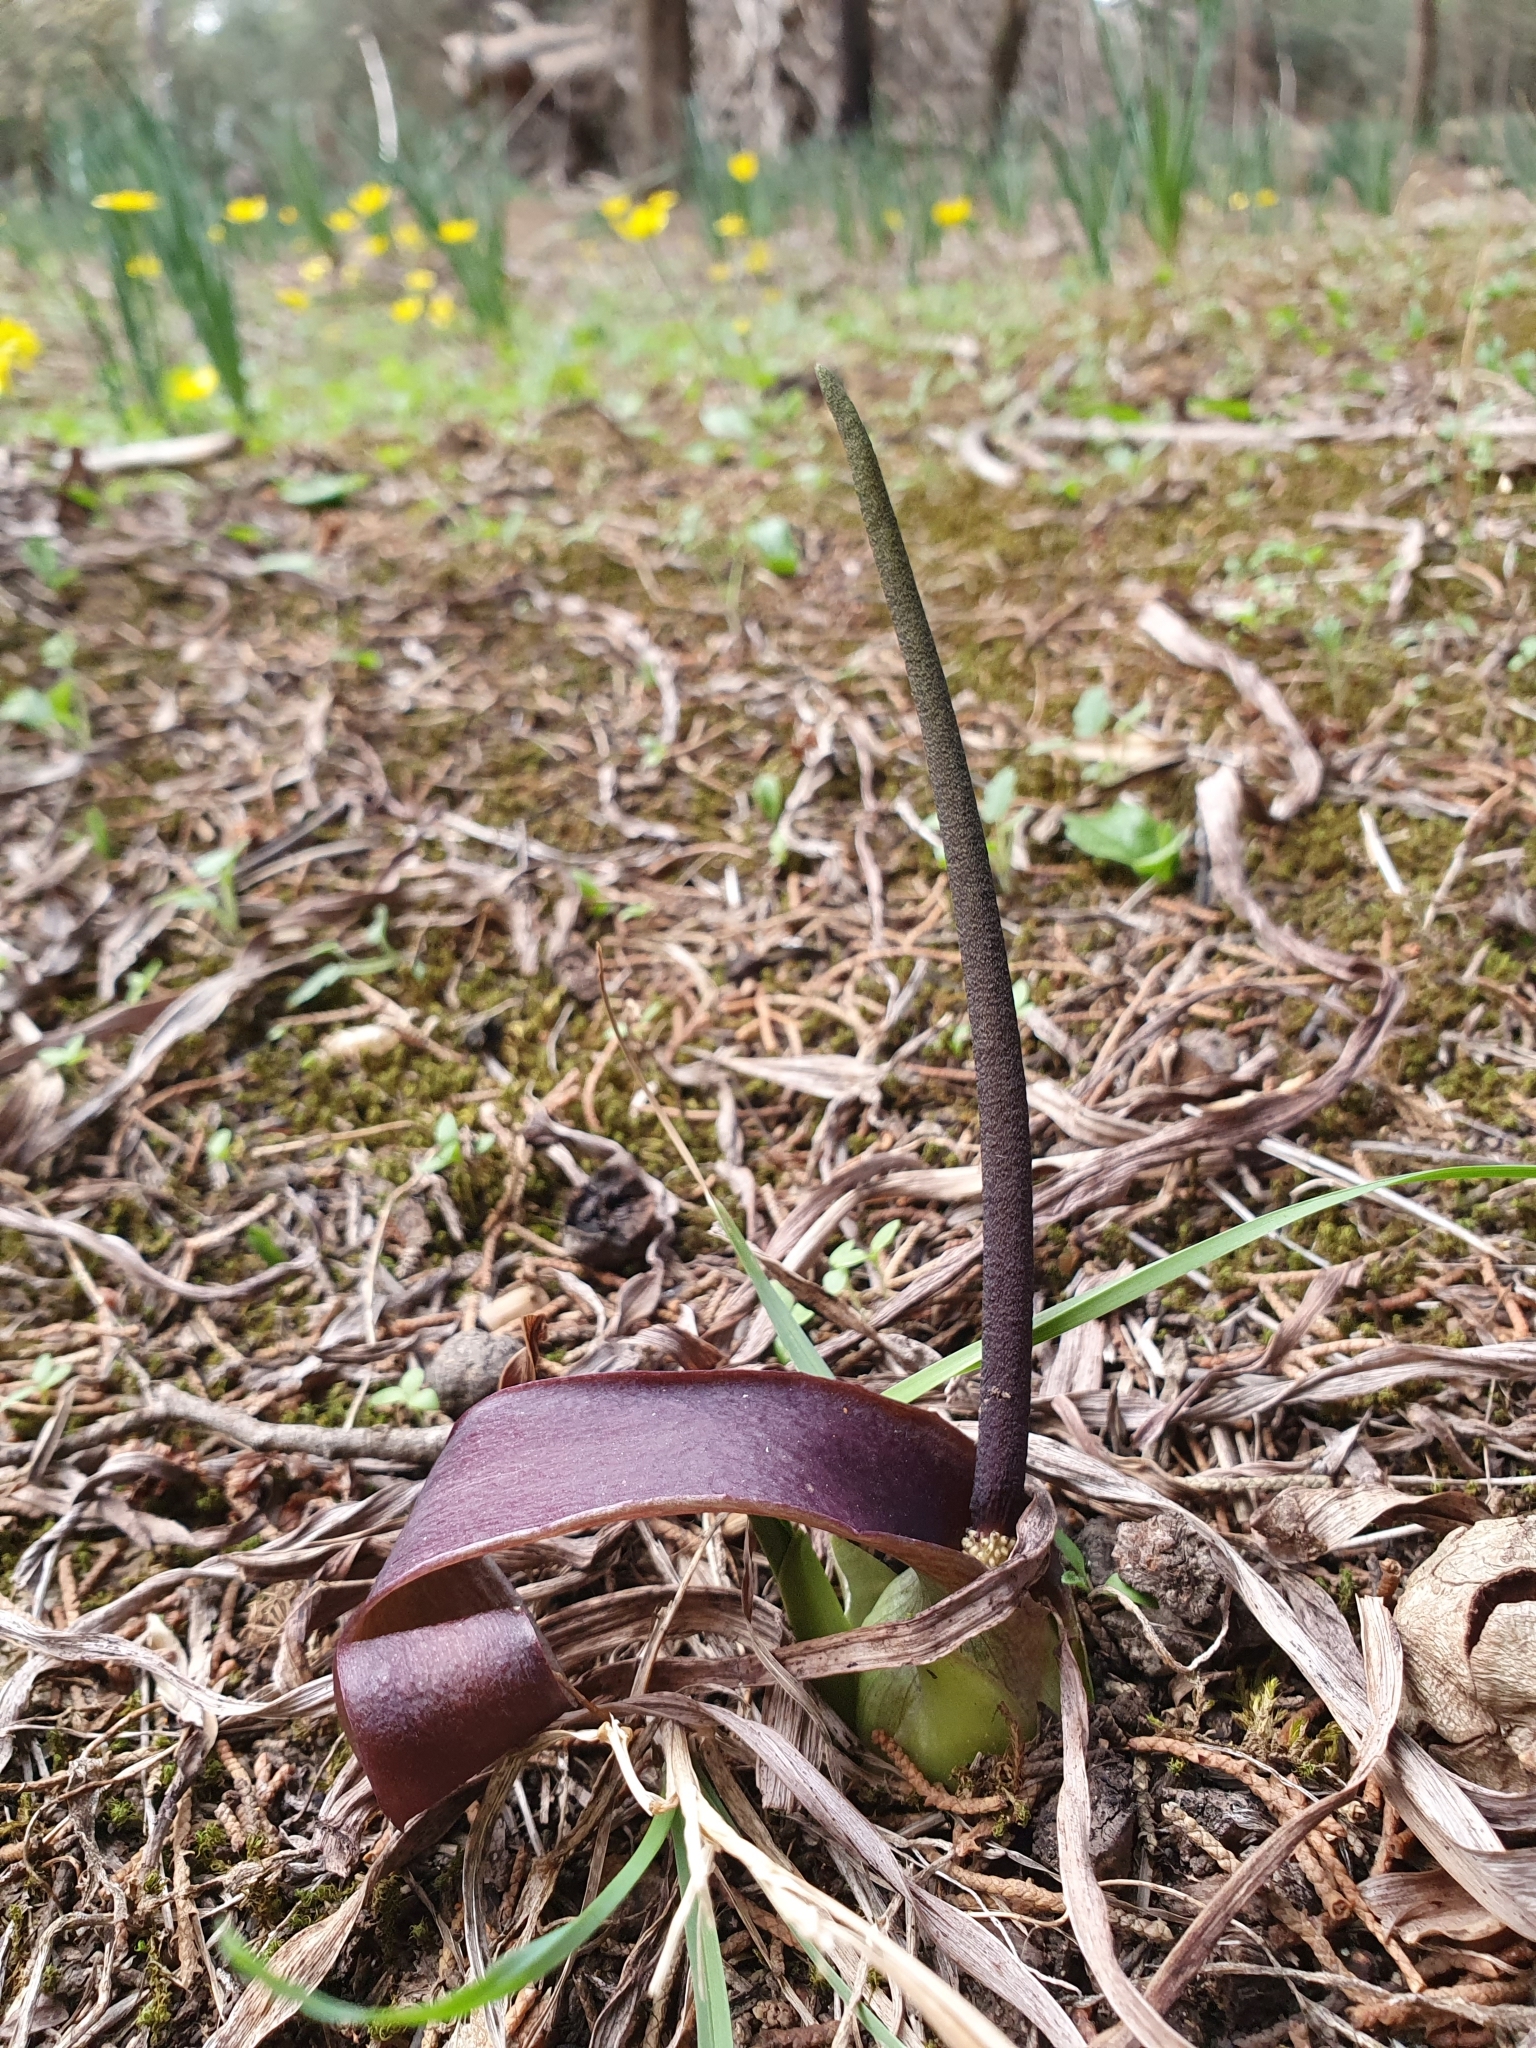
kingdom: Plantae
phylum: Tracheophyta
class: Liliopsida
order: Alismatales
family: Araceae
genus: Biarum
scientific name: Biarum dispar
